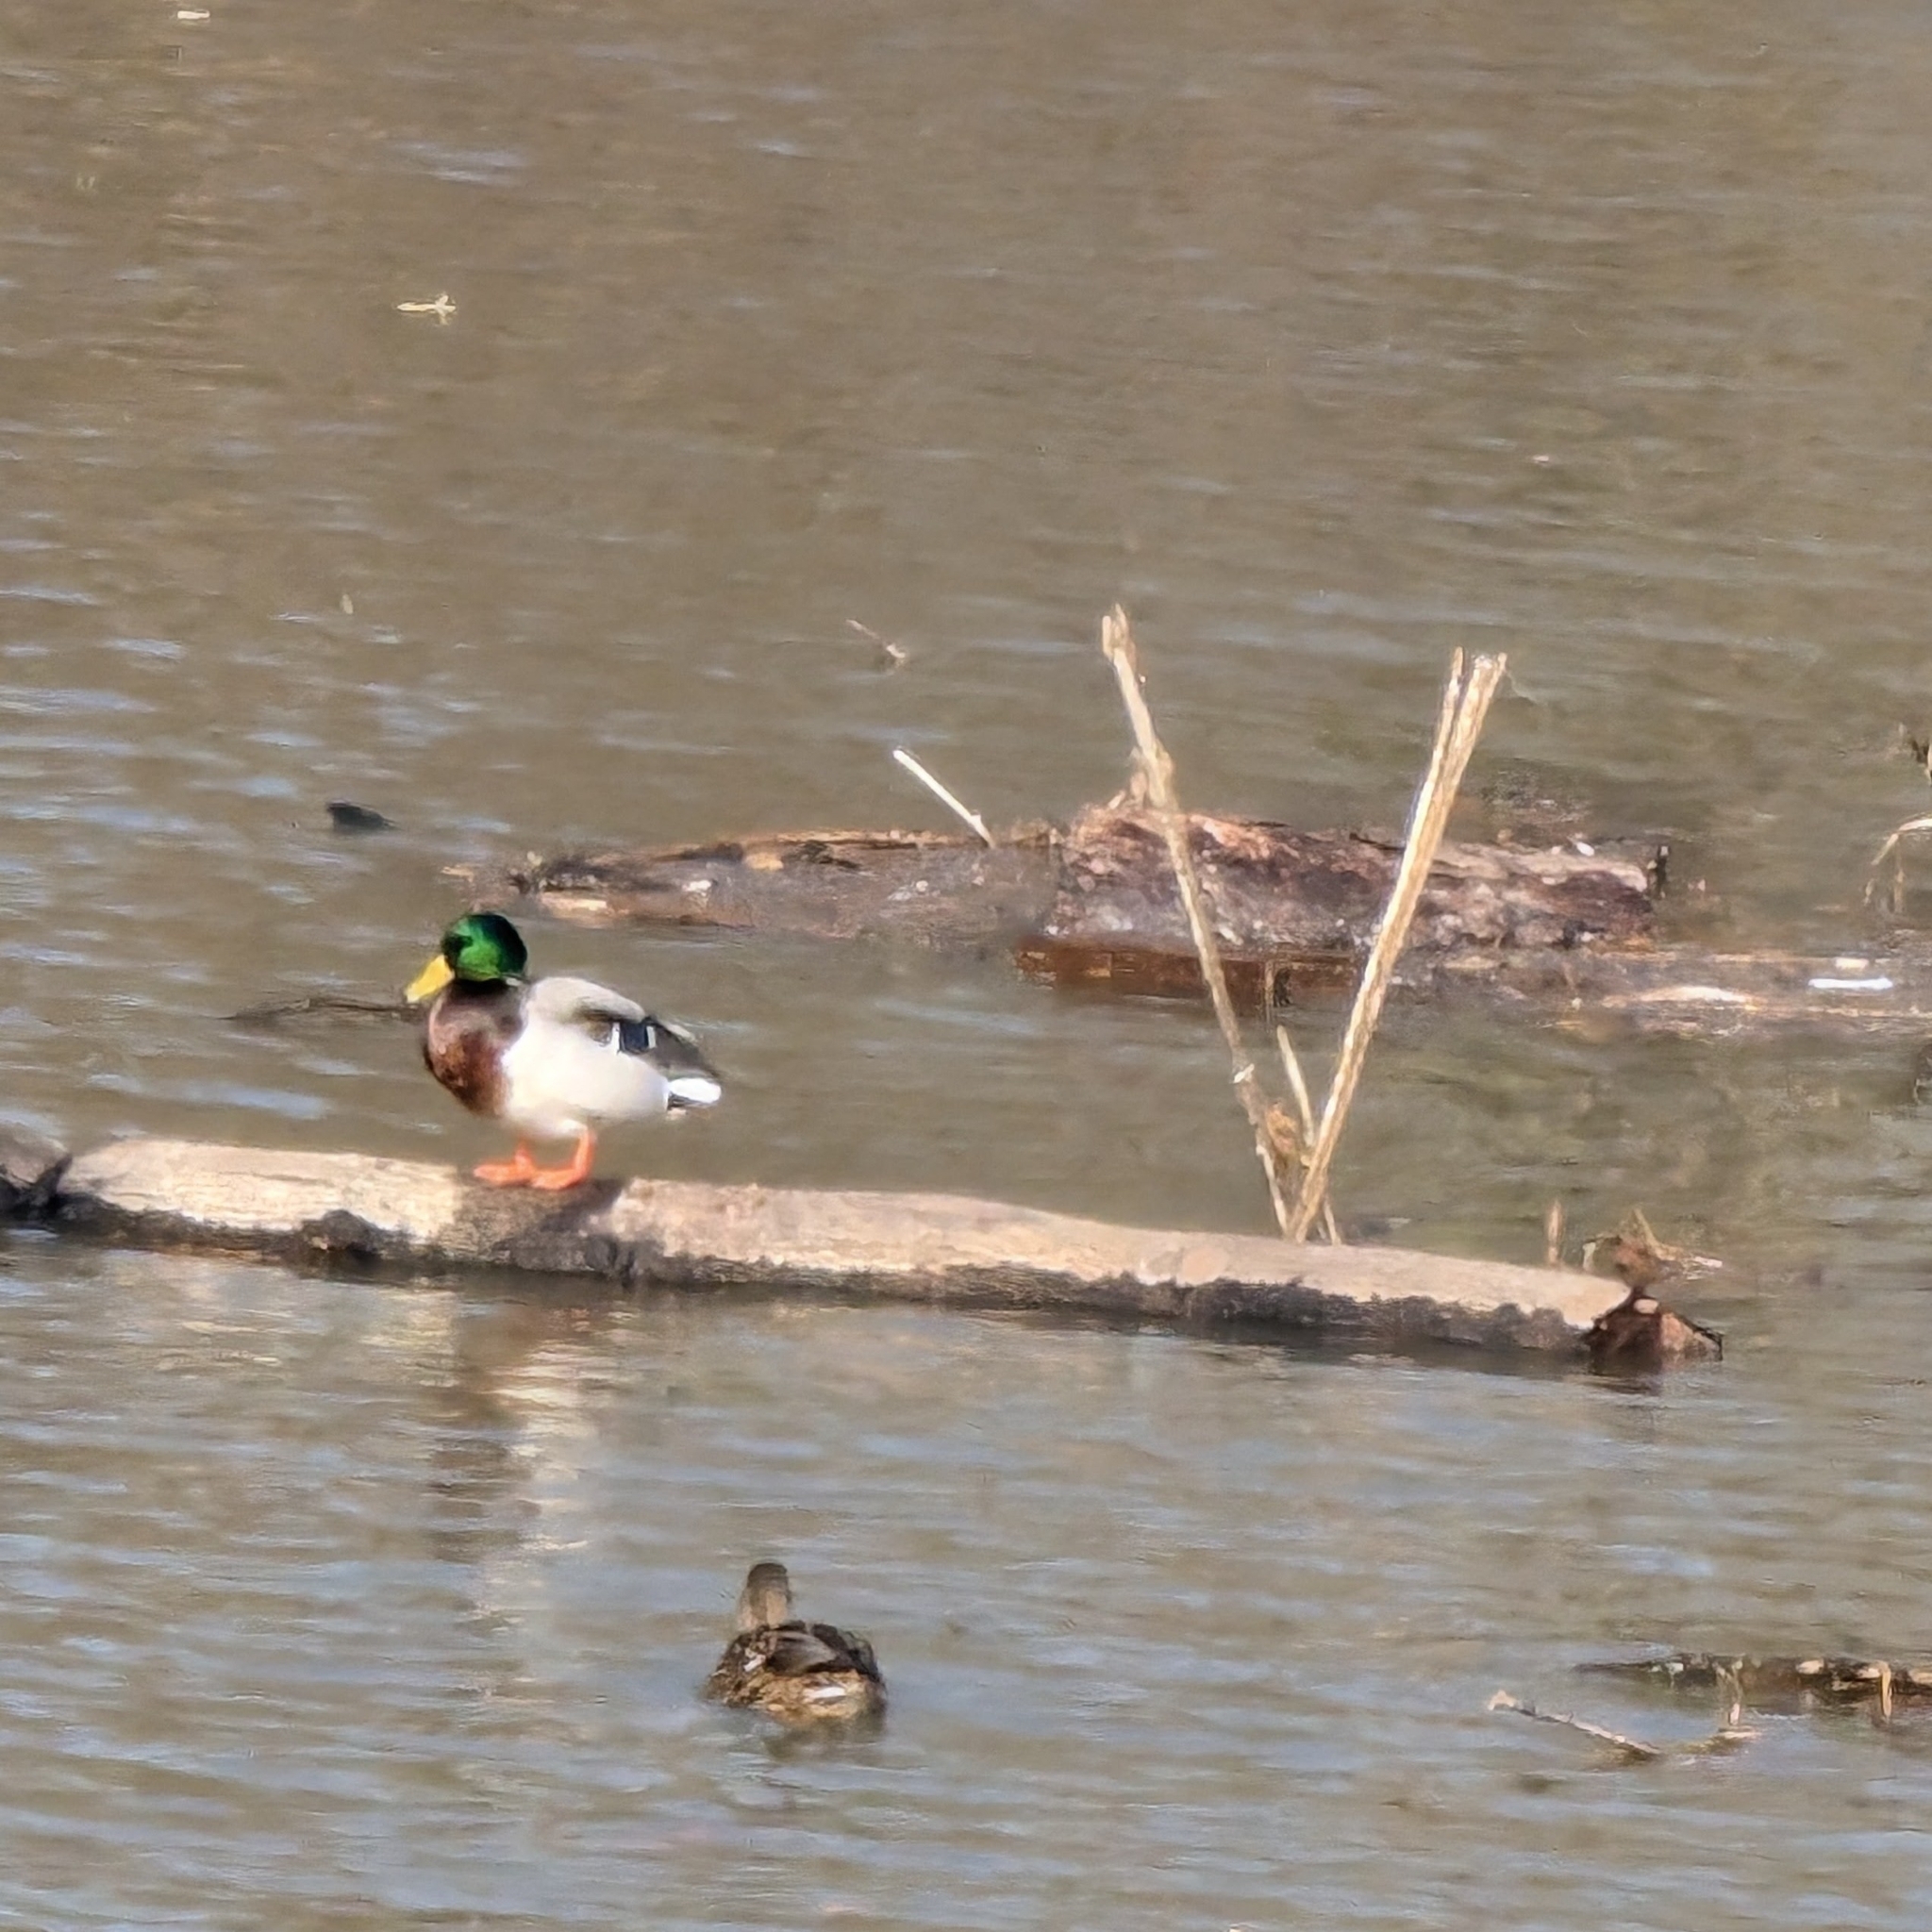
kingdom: Animalia
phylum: Chordata
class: Aves
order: Anseriformes
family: Anatidae
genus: Anas
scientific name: Anas platyrhynchos
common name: Mallard
